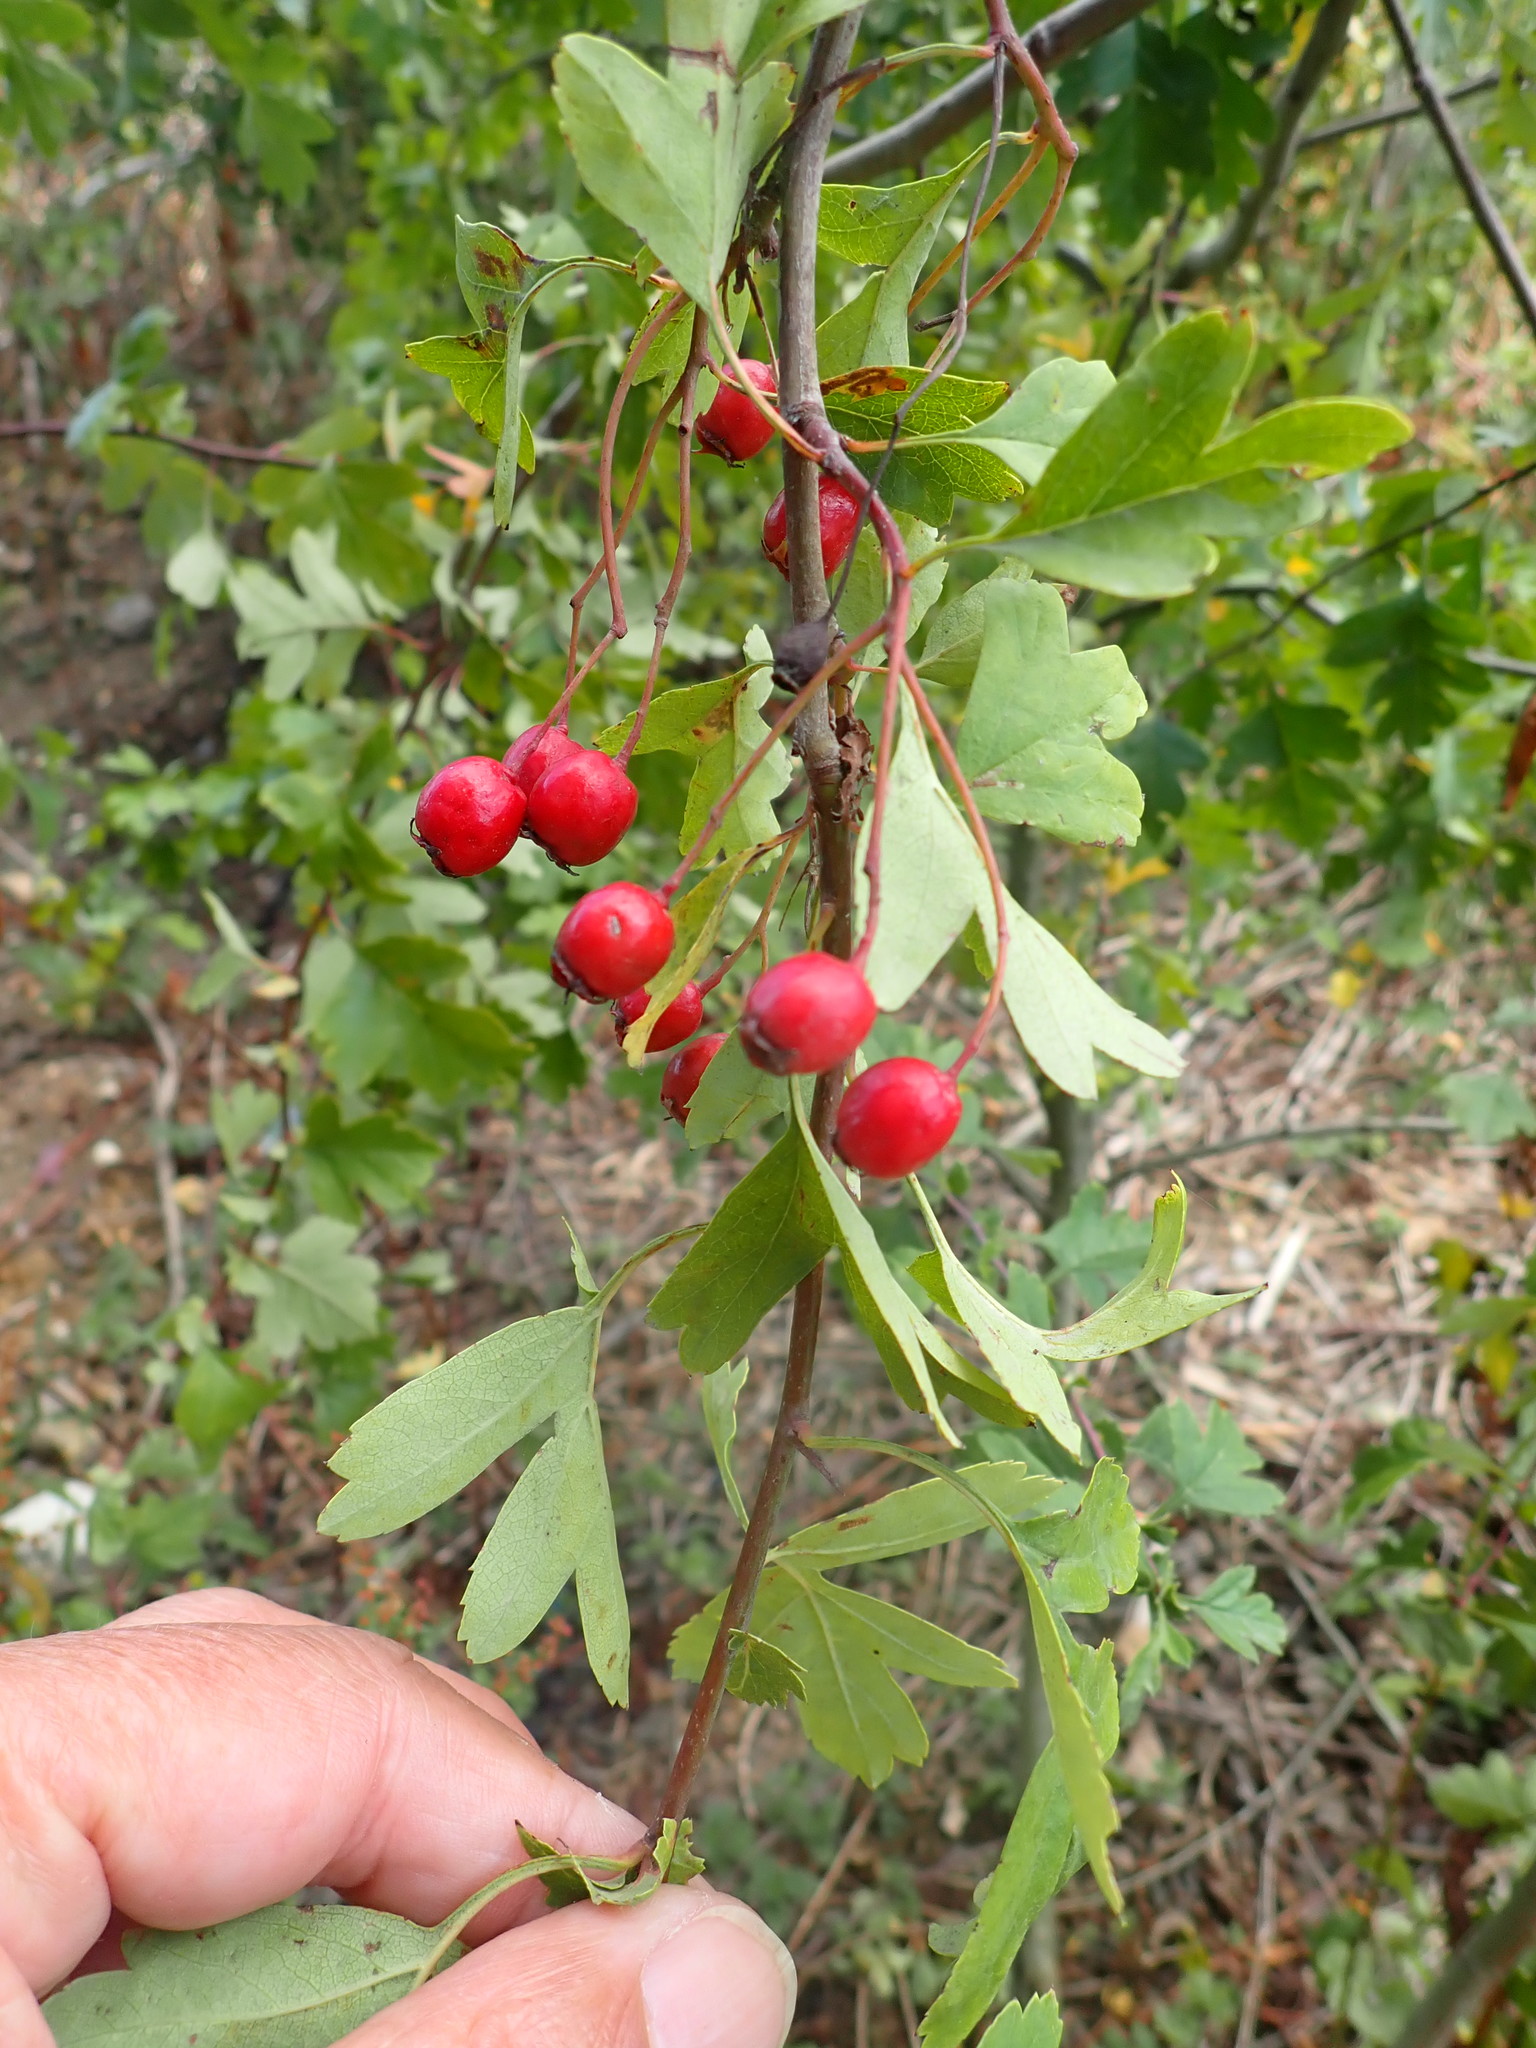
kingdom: Plantae
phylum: Tracheophyta
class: Magnoliopsida
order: Rosales
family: Rosaceae
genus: Crataegus
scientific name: Crataegus monogyna
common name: Hawthorn
